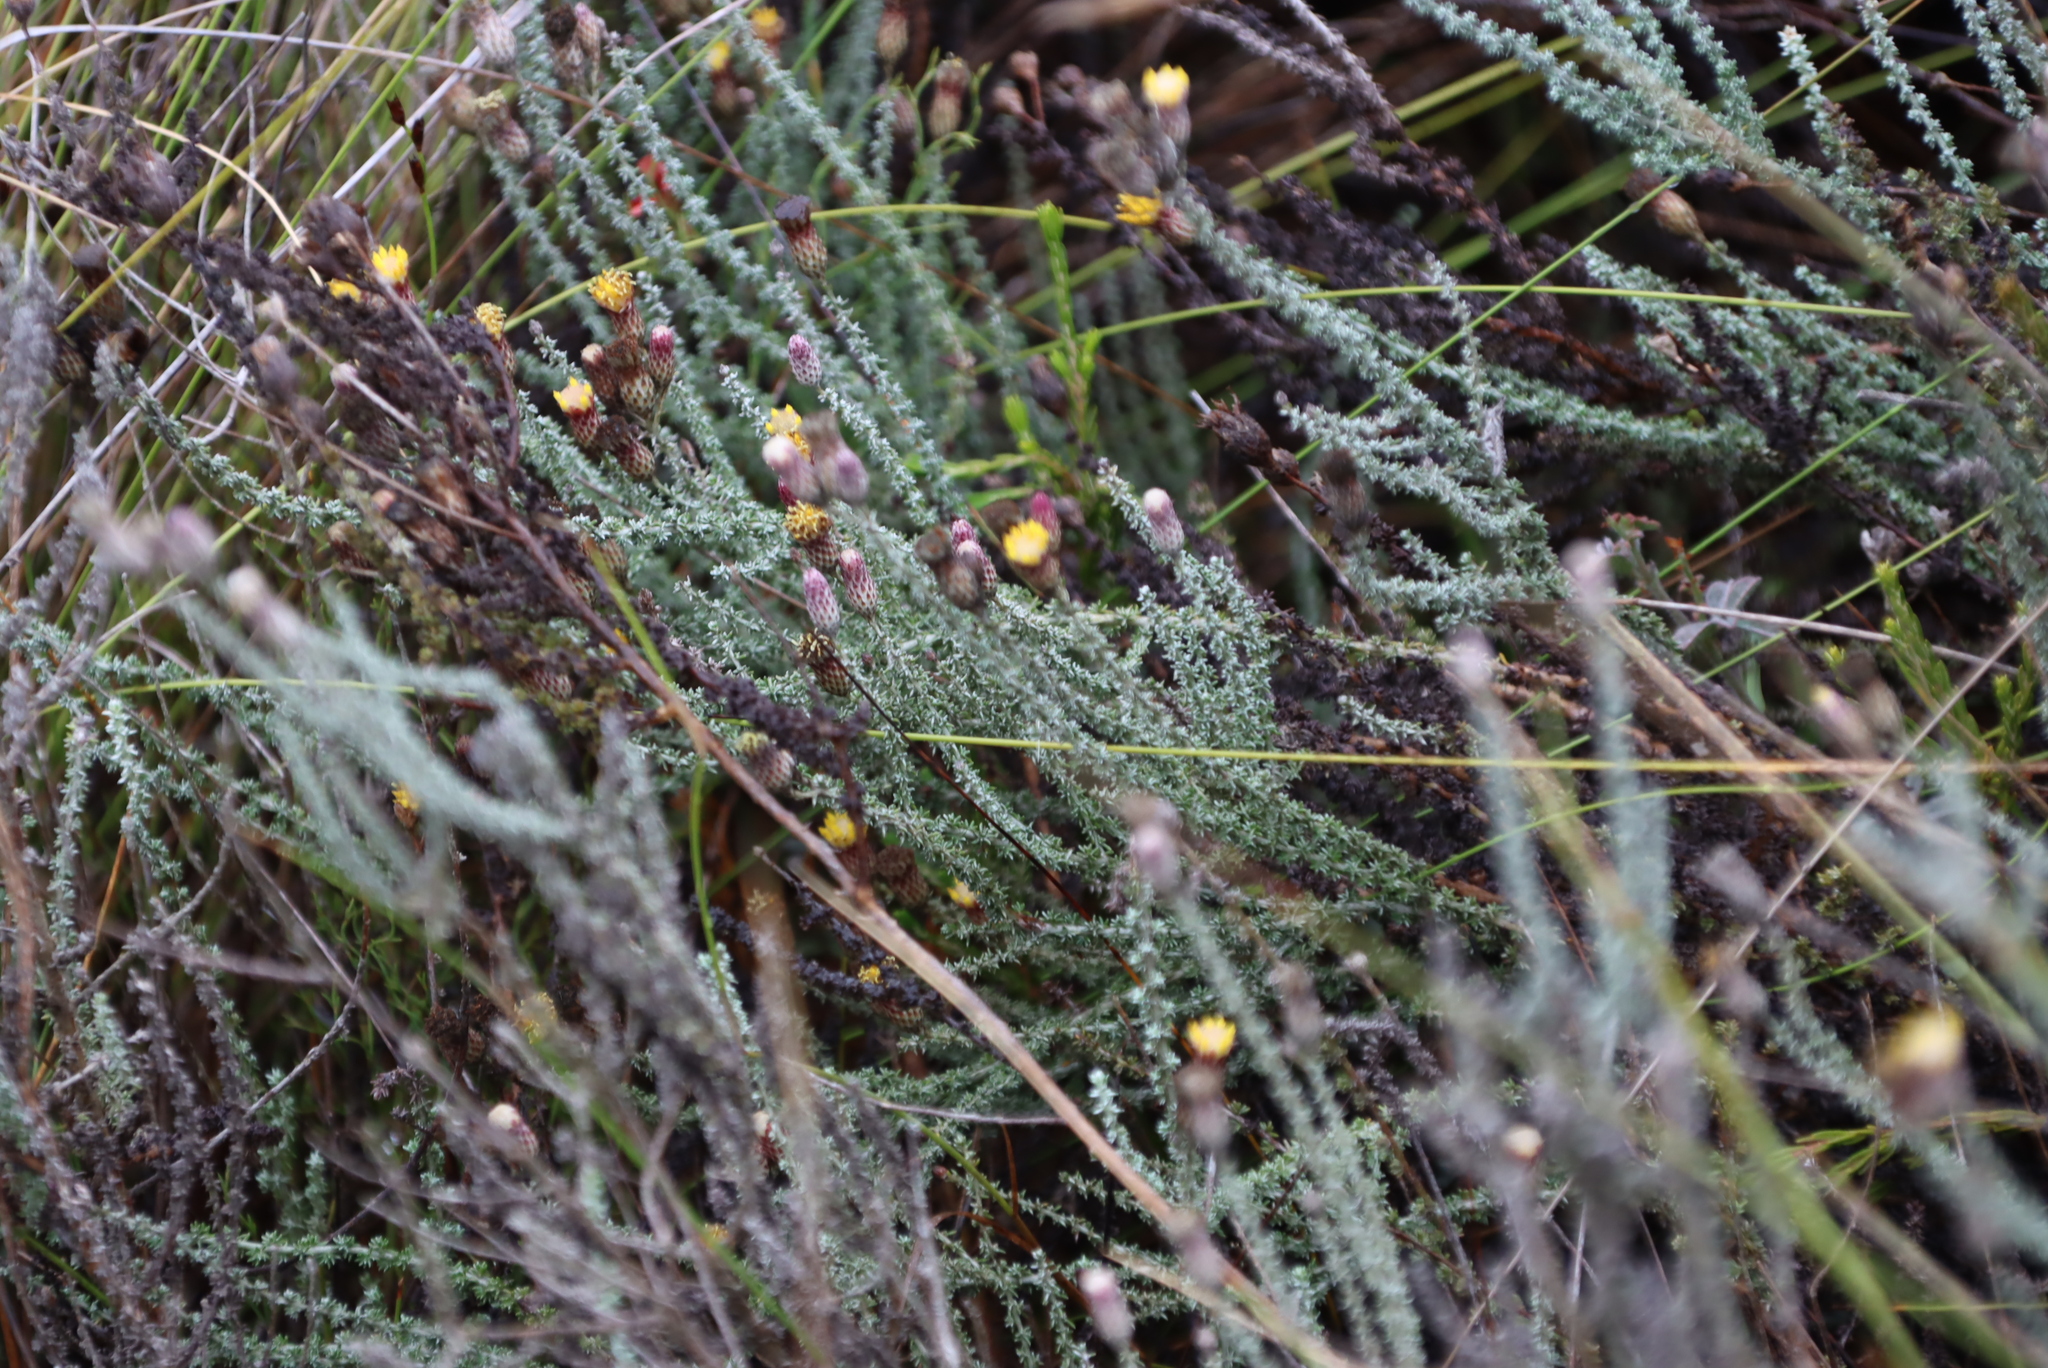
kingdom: Plantae
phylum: Tracheophyta
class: Magnoliopsida
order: Asterales
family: Asteraceae
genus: Lachnospermum
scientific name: Lachnospermum umbellatum
